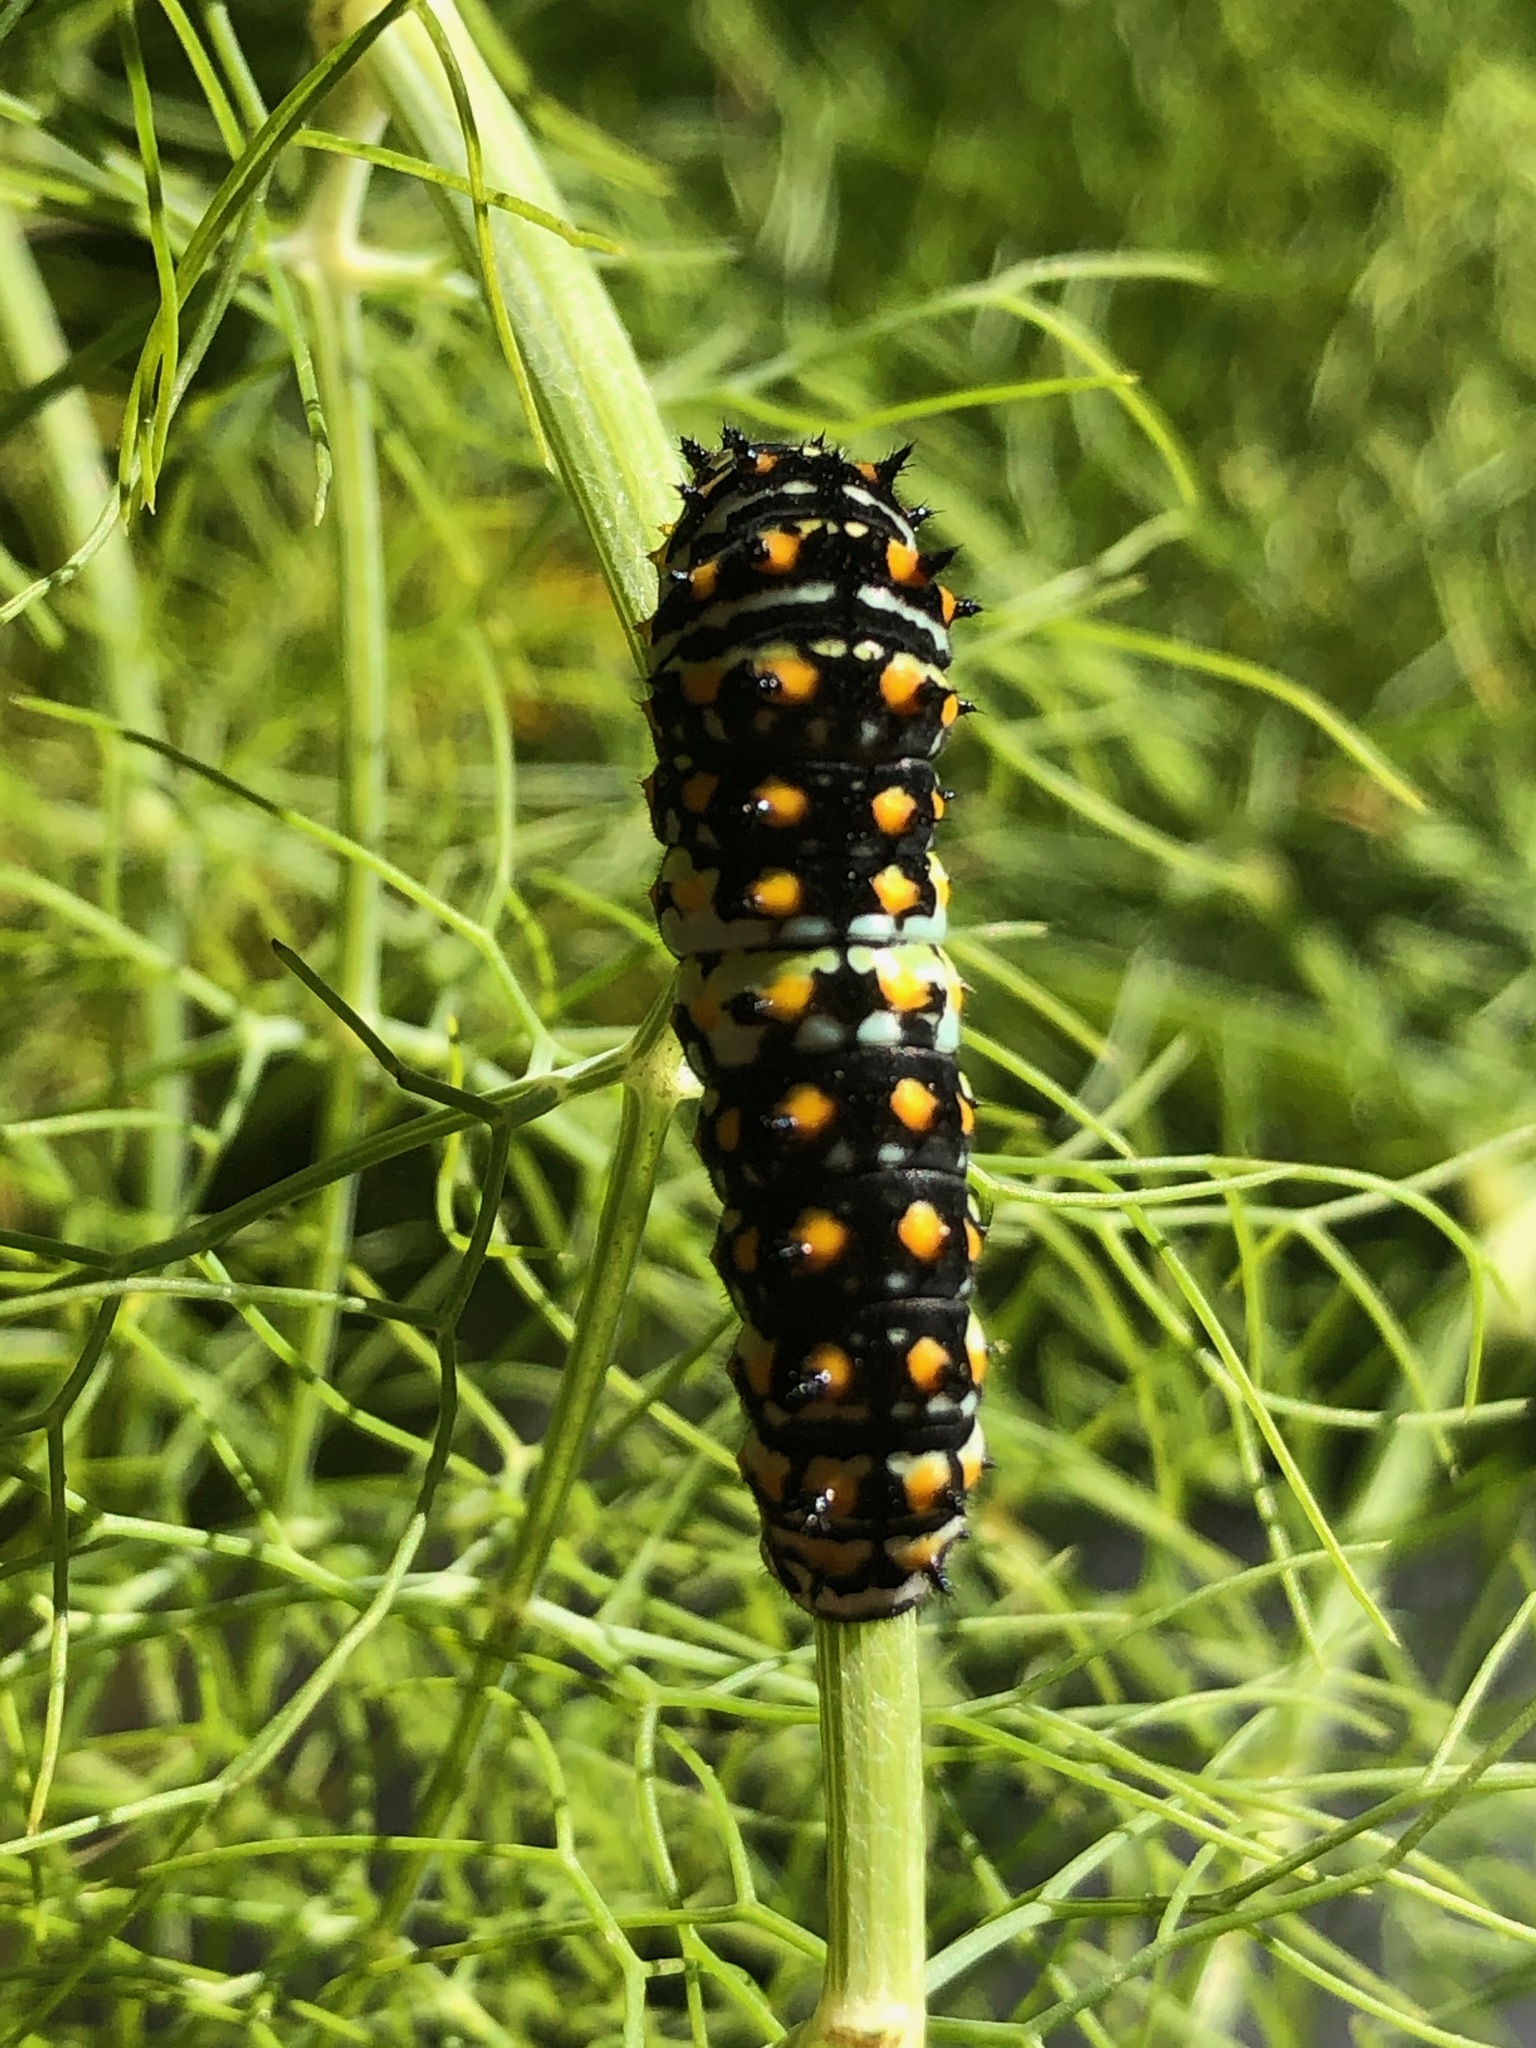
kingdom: Animalia
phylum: Arthropoda
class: Insecta
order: Lepidoptera
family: Papilionidae
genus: Papilio
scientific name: Papilio zelicaon
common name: Anise swallowtail
